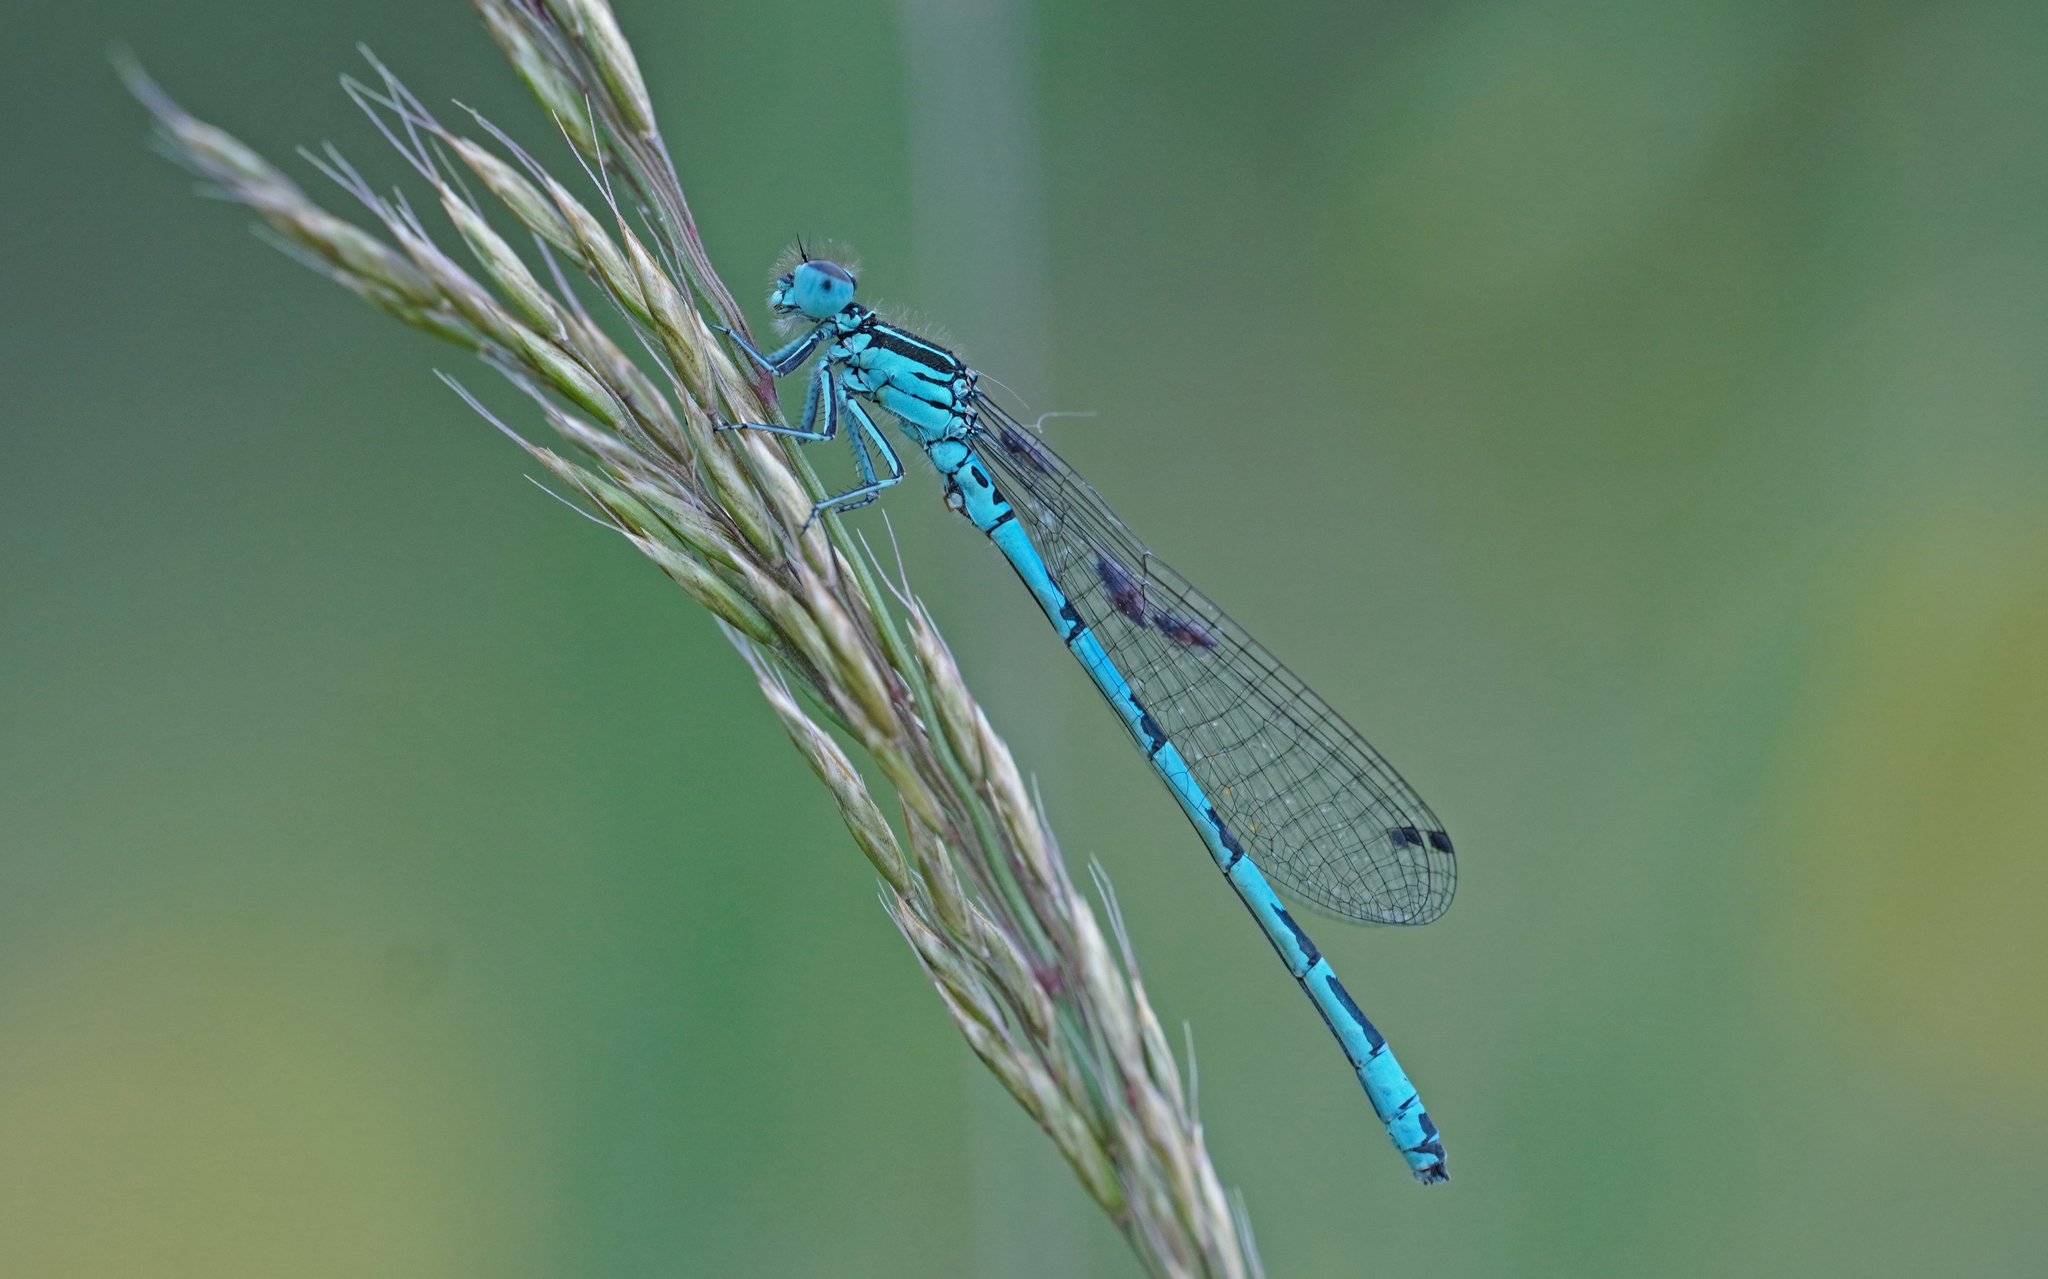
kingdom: Animalia
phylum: Arthropoda
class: Insecta
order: Odonata
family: Coenagrionidae
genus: Coenagrion
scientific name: Coenagrion mercuriale
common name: Southern damselfly
